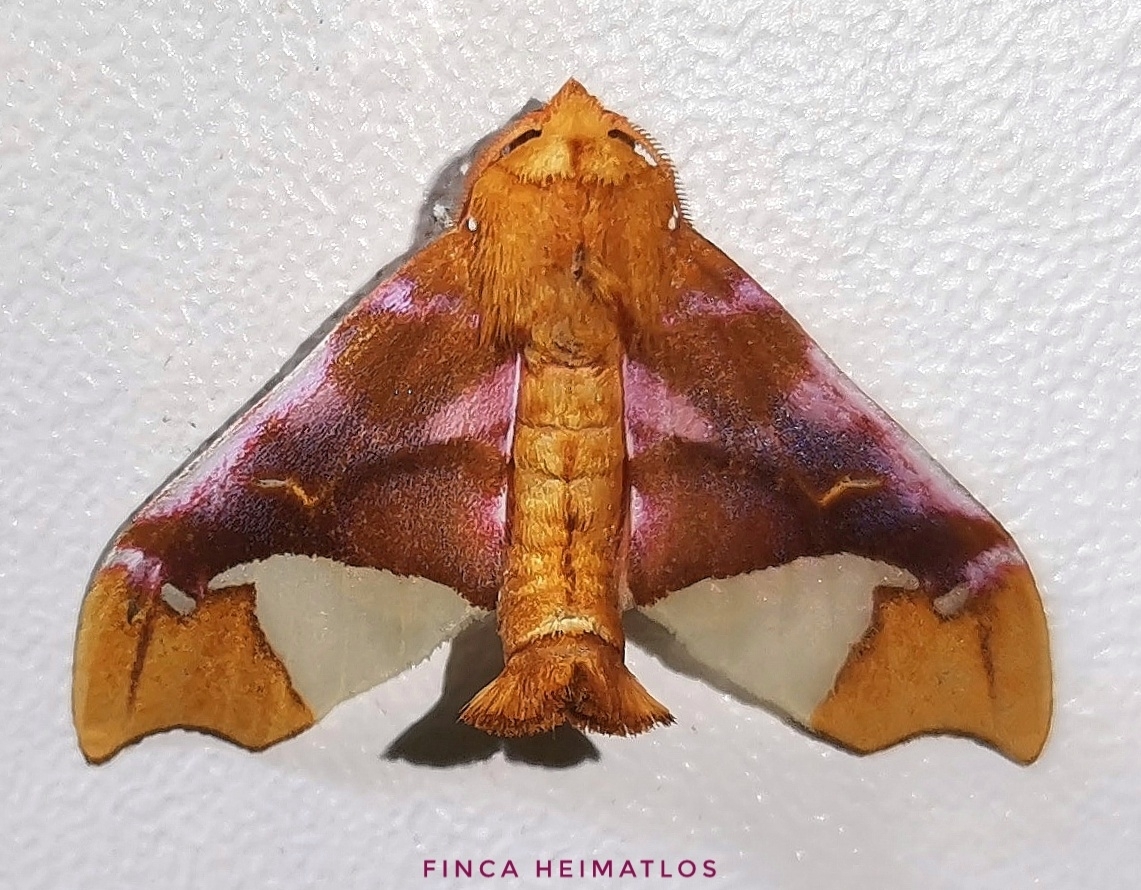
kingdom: Animalia
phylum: Arthropoda
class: Insecta
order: Lepidoptera
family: Erebidae
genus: Zaevius
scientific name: Zaevius calocore
